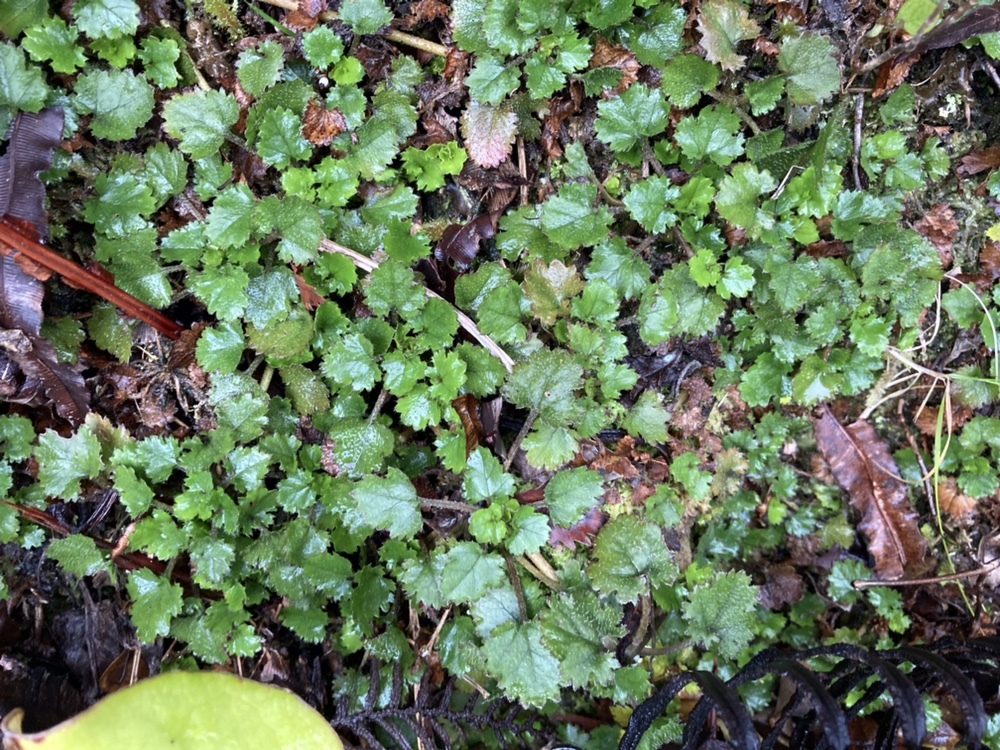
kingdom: Plantae
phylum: Tracheophyta
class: Magnoliopsida
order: Gunnerales
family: Gunneraceae
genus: Gunnera
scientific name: Gunnera monoica
